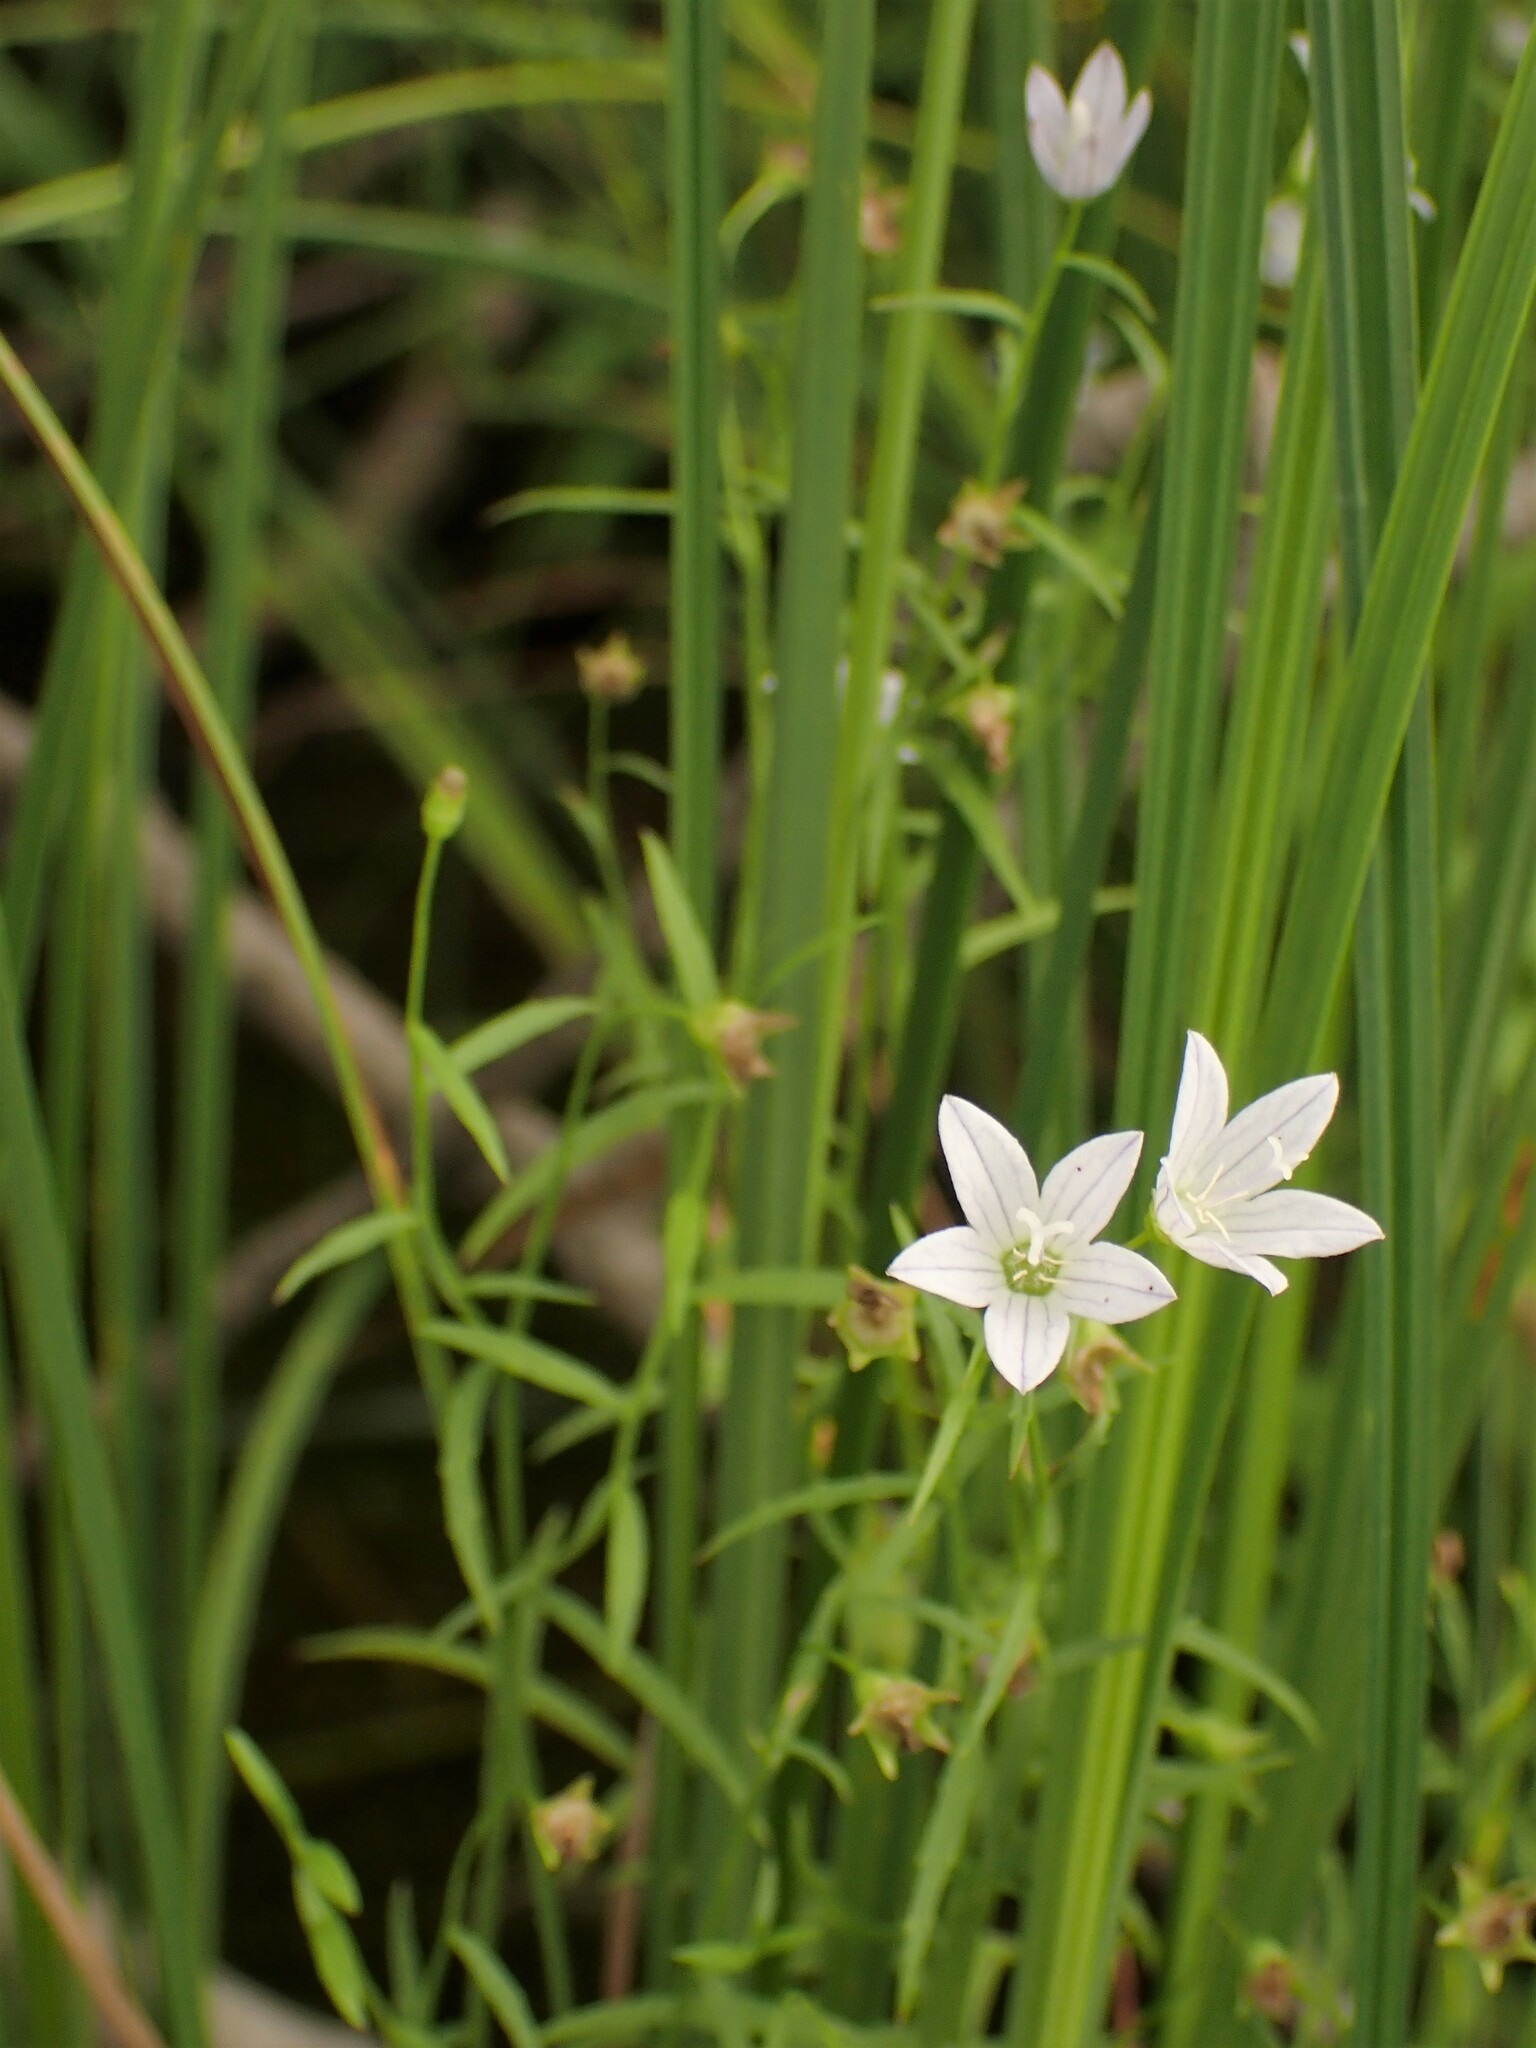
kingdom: Plantae
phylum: Tracheophyta
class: Magnoliopsida
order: Asterales
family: Campanulaceae
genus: Palustricodon
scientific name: Palustricodon aparinoides
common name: Bedstraw bellflower
